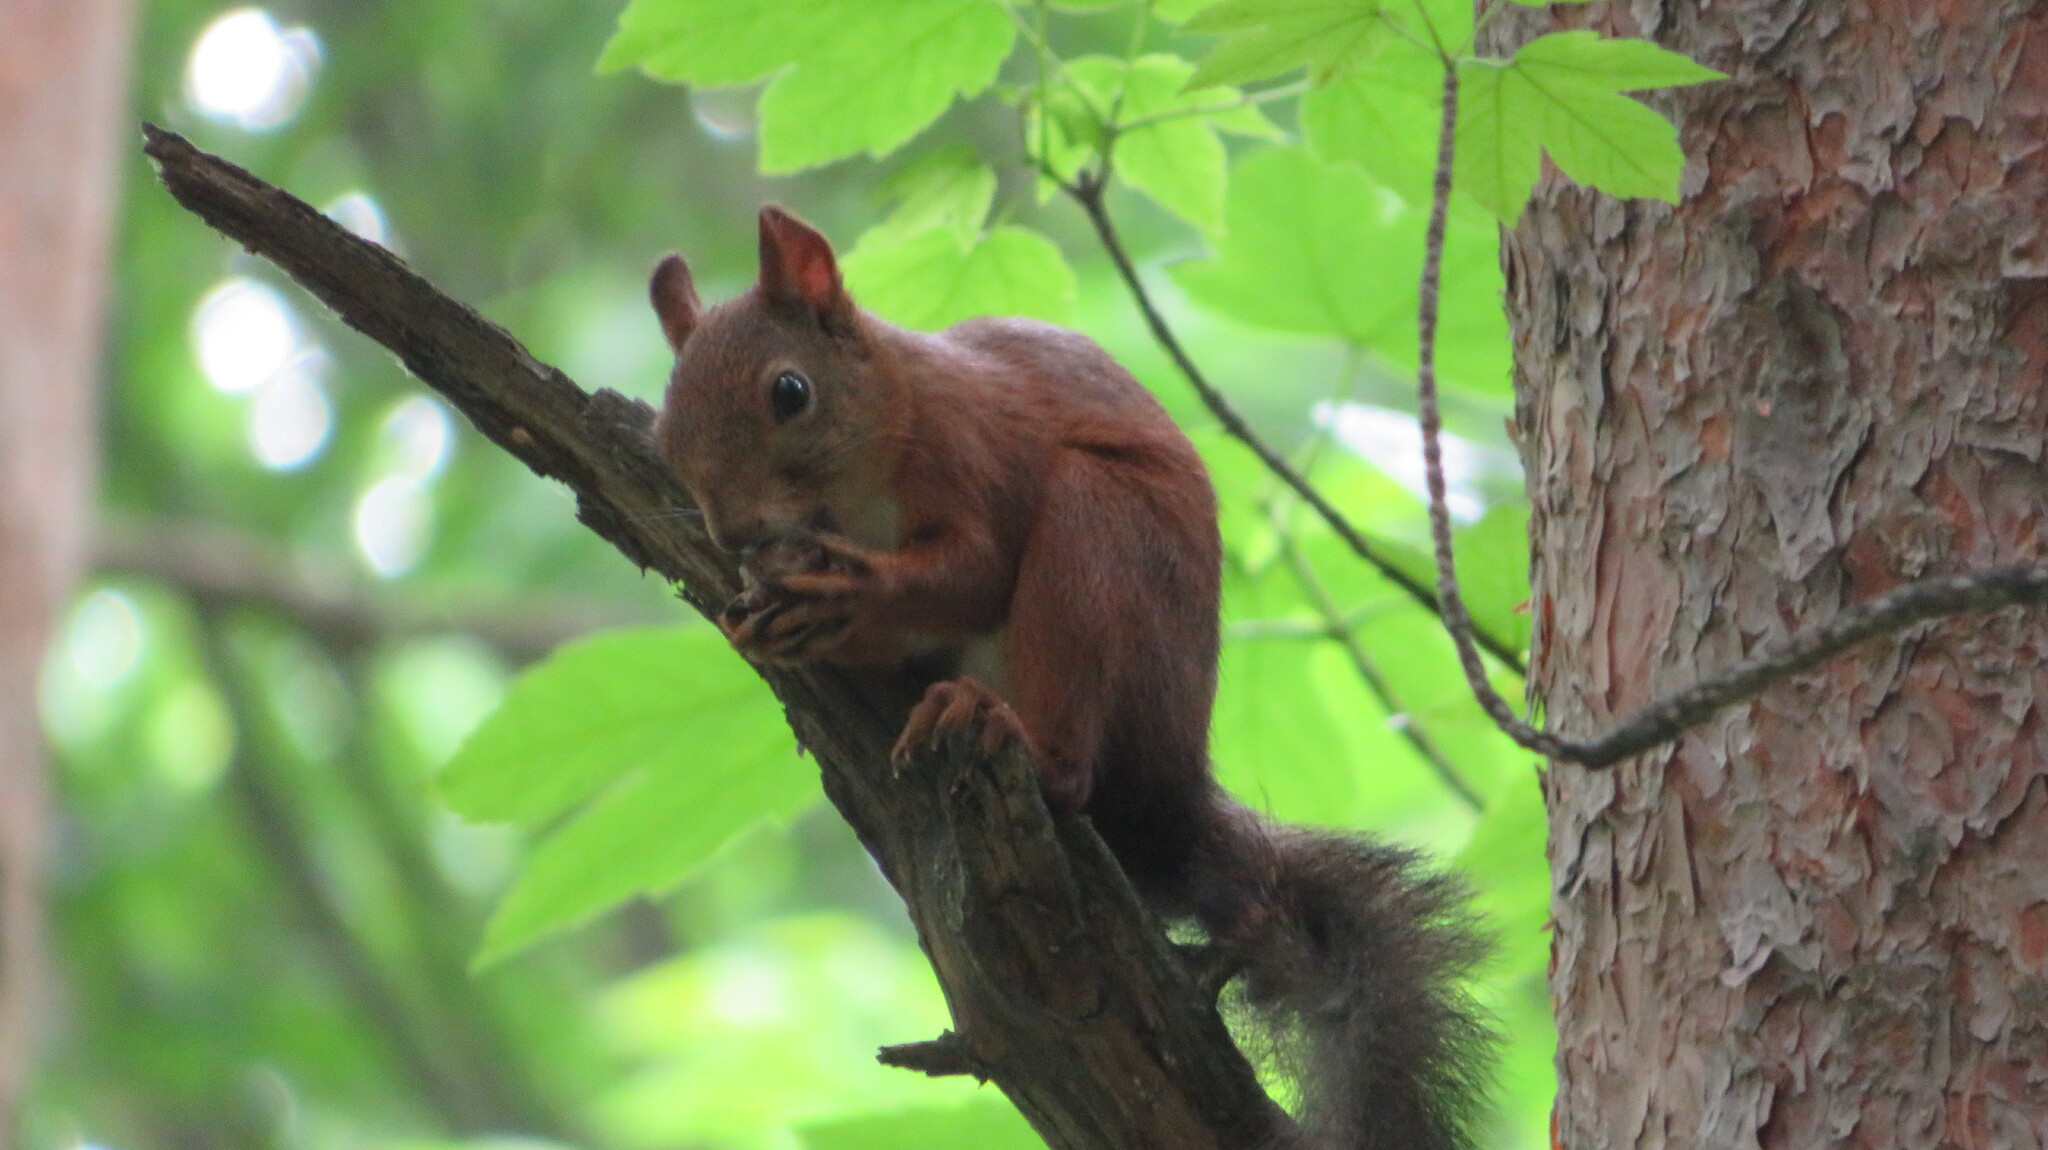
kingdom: Animalia
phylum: Chordata
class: Mammalia
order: Rodentia
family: Sciuridae
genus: Sciurus
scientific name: Sciurus vulgaris
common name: Eurasian red squirrel
